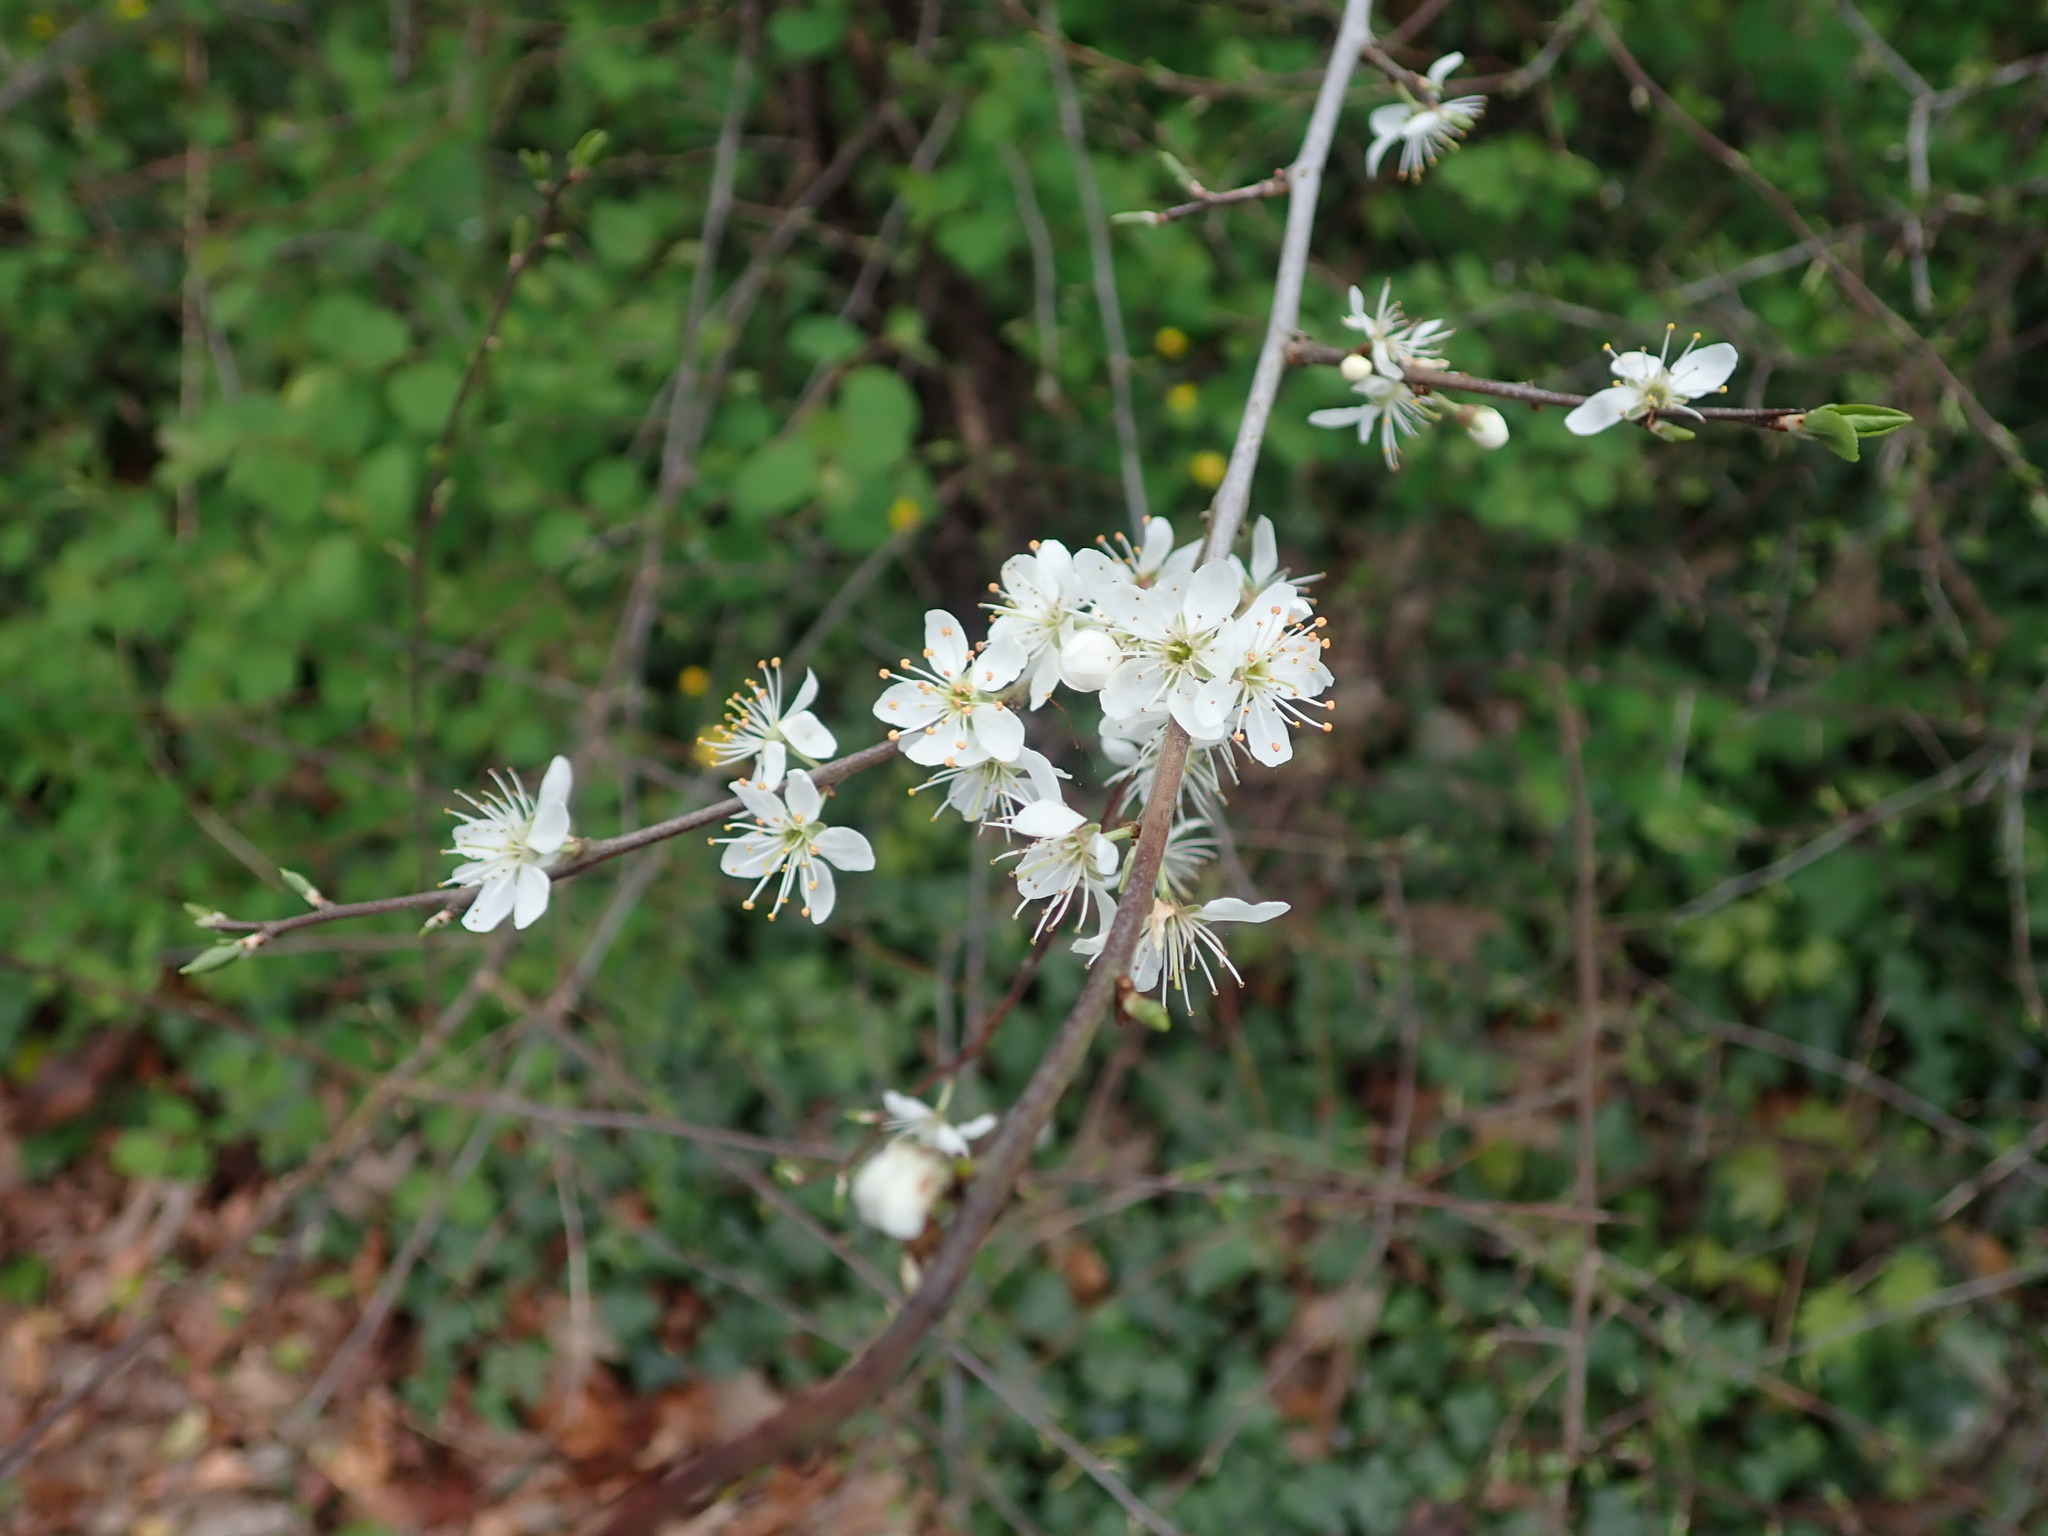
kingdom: Plantae
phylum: Tracheophyta
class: Magnoliopsida
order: Rosales
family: Rosaceae
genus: Prunus
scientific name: Prunus spinosa
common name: Blackthorn
